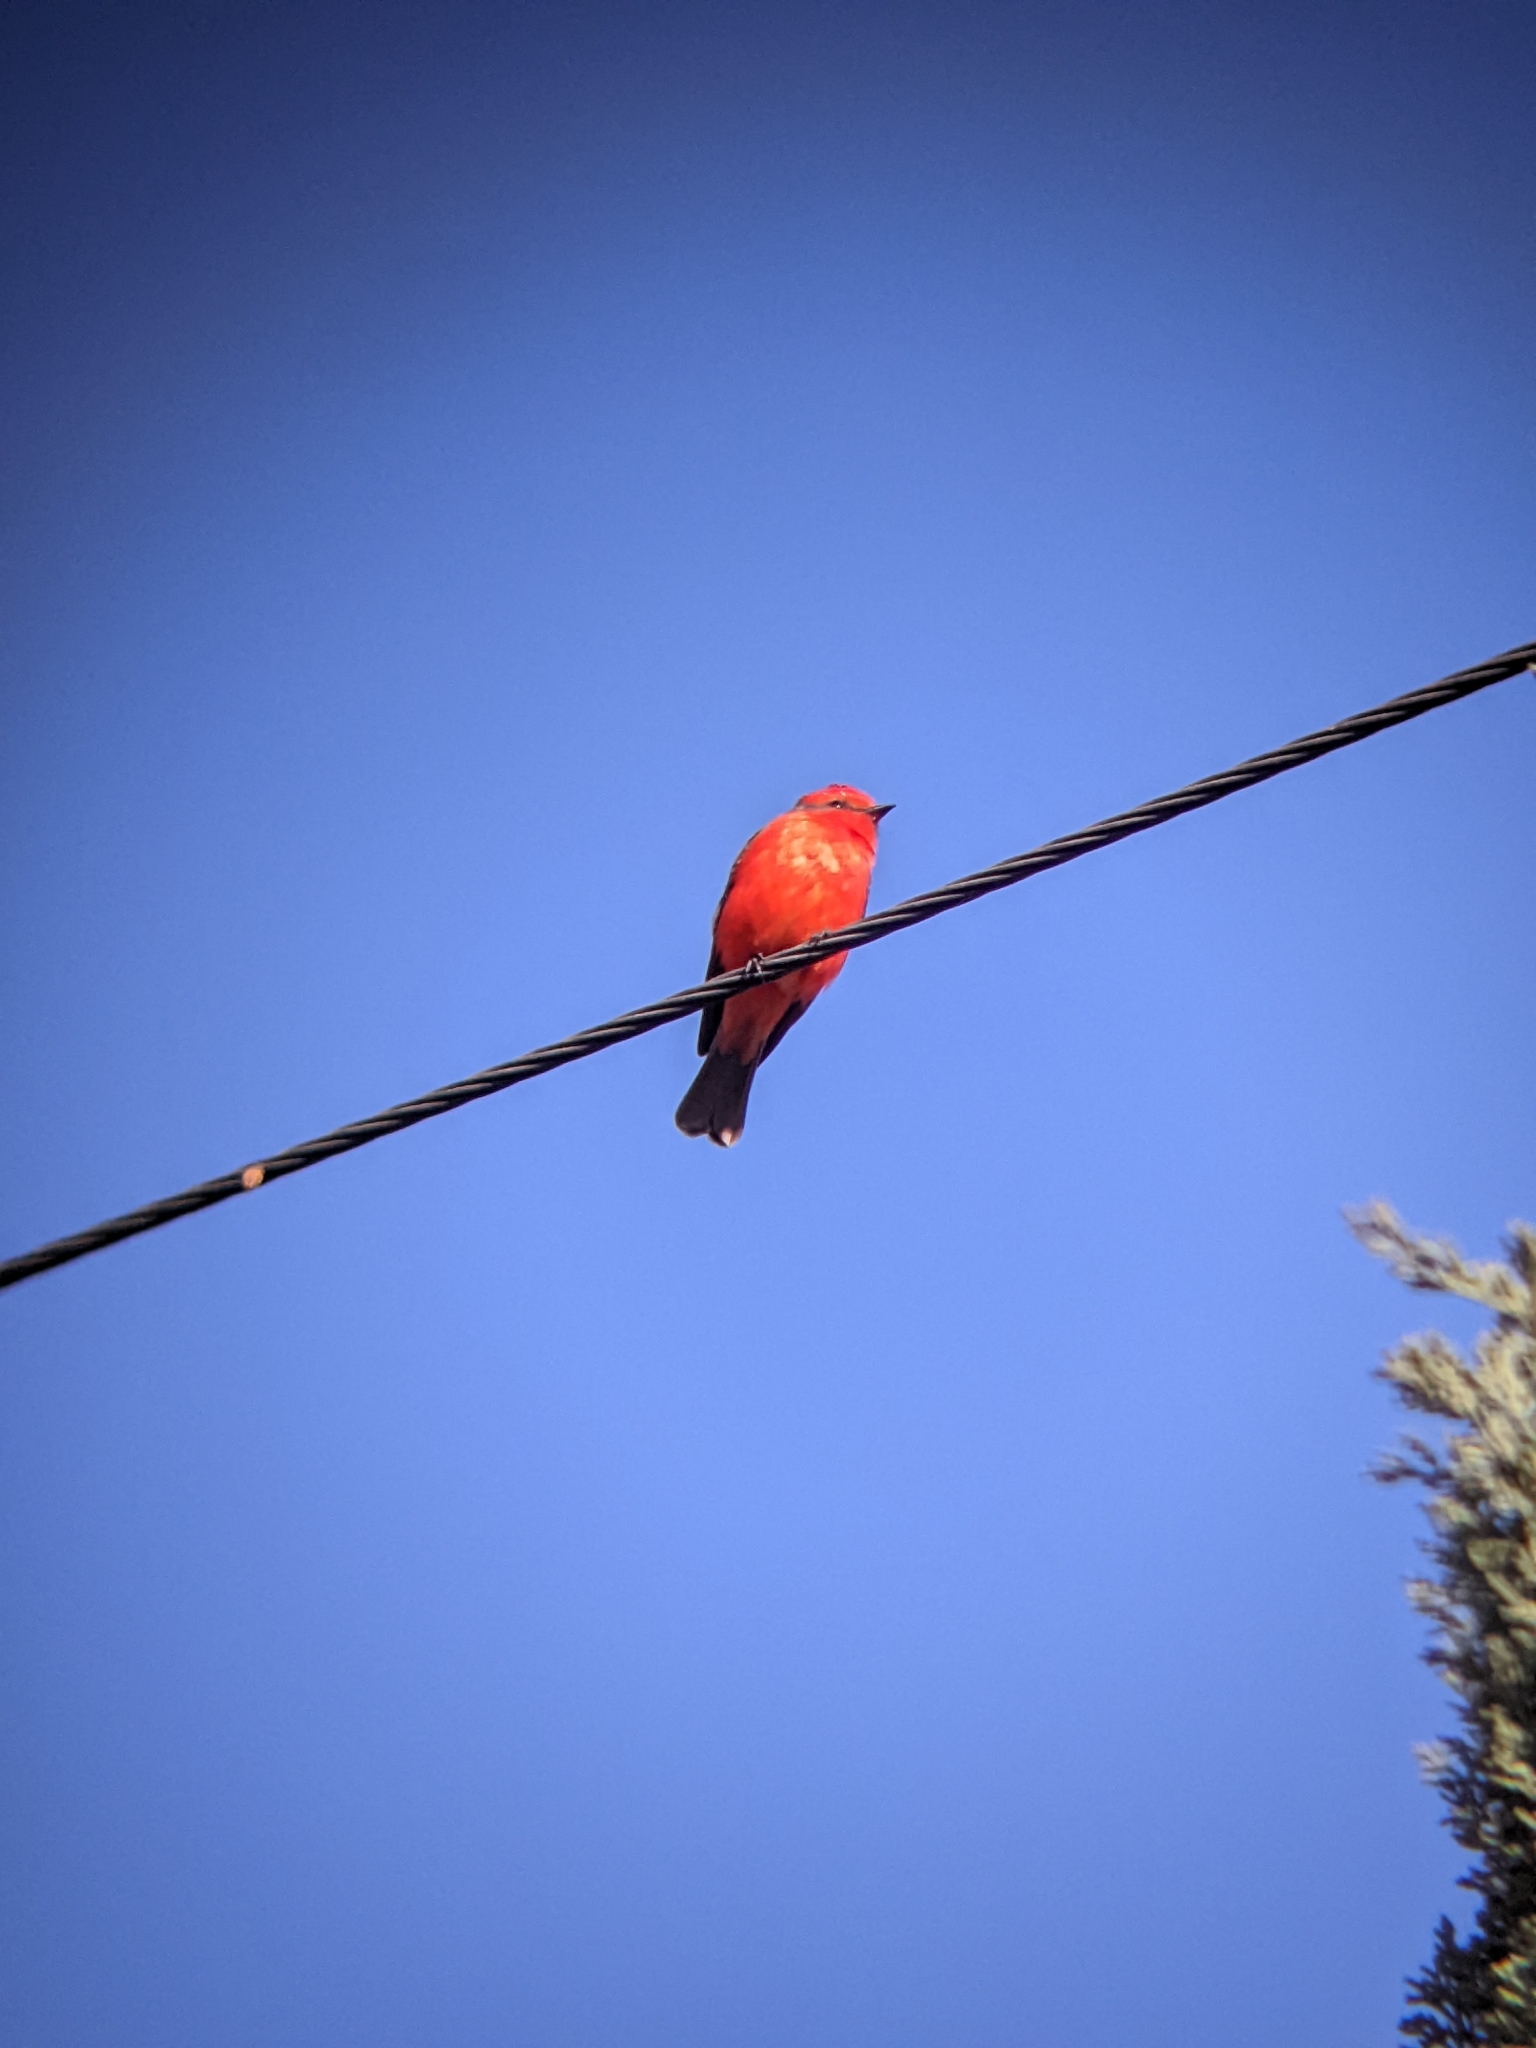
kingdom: Animalia
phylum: Chordata
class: Aves
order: Passeriformes
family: Tyrannidae
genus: Pyrocephalus
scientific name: Pyrocephalus rubinus
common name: Vermilion flycatcher
